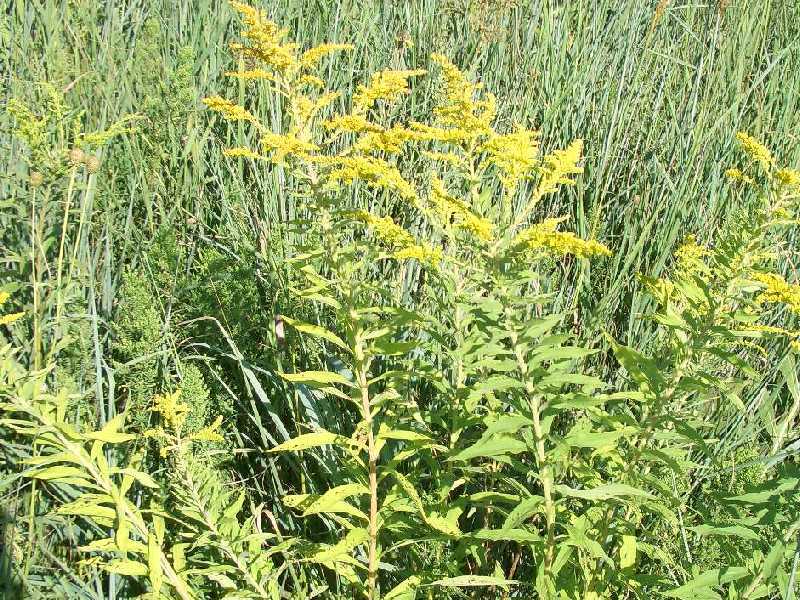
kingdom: Plantae
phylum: Tracheophyta
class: Magnoliopsida
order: Asterales
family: Asteraceae
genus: Solidago
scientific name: Solidago altissima
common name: Late goldenrod
